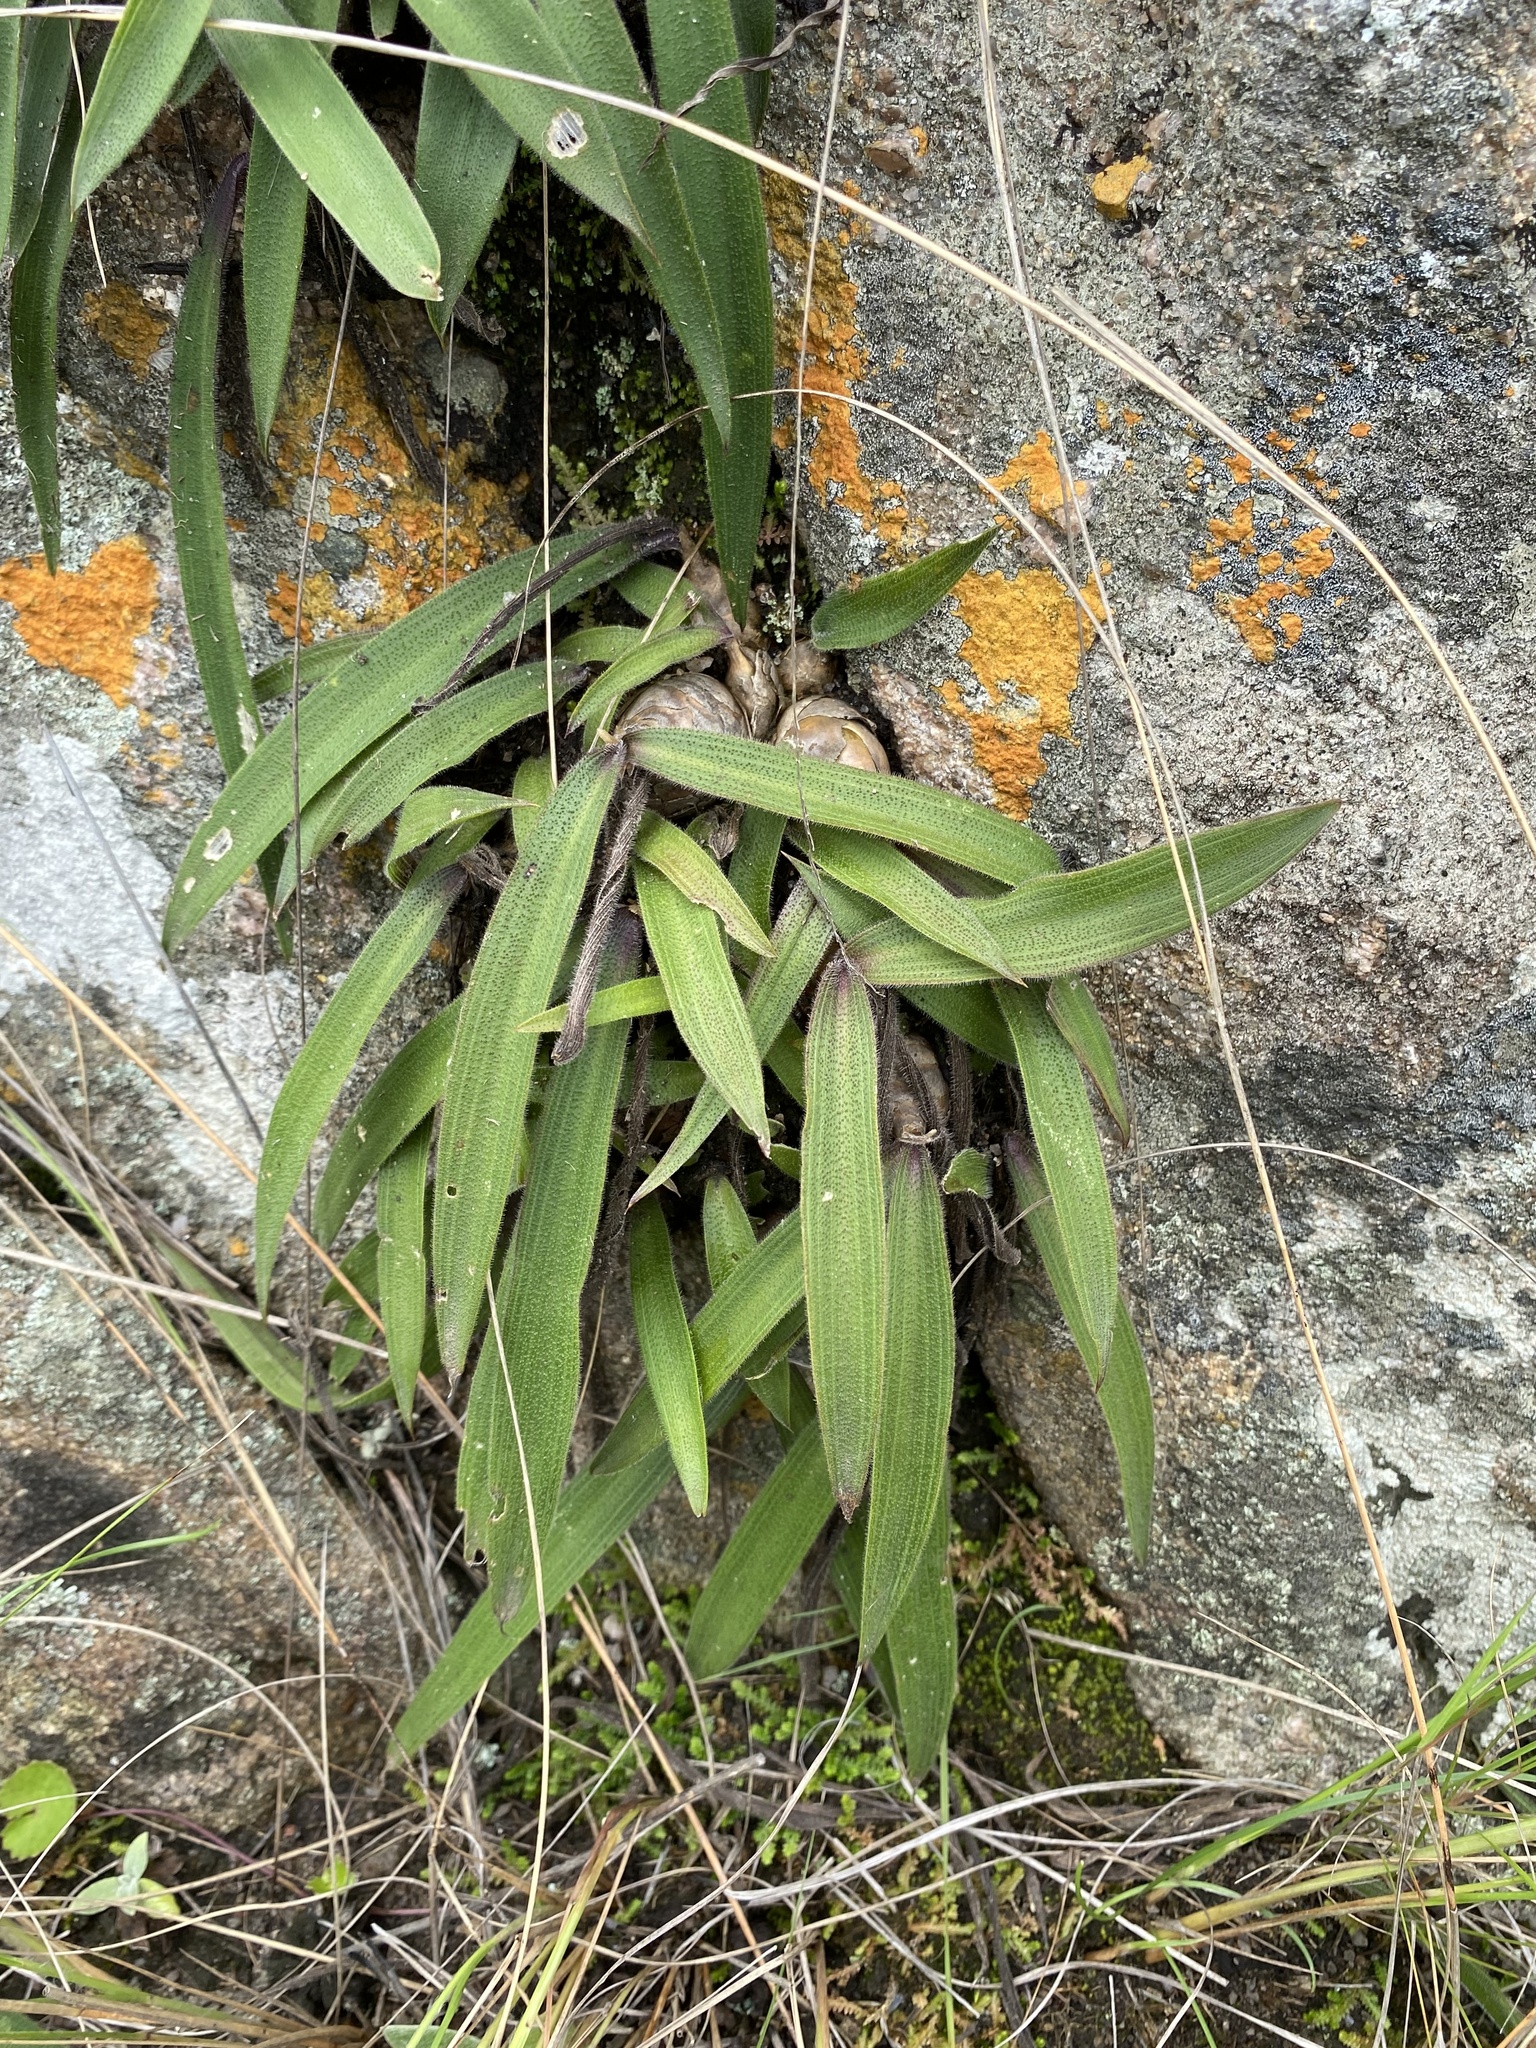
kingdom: Plantae
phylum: Tracheophyta
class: Liliopsida
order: Asparagales
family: Asparagaceae
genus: Merwilla
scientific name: Merwilla plumbea
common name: Blue-squill
